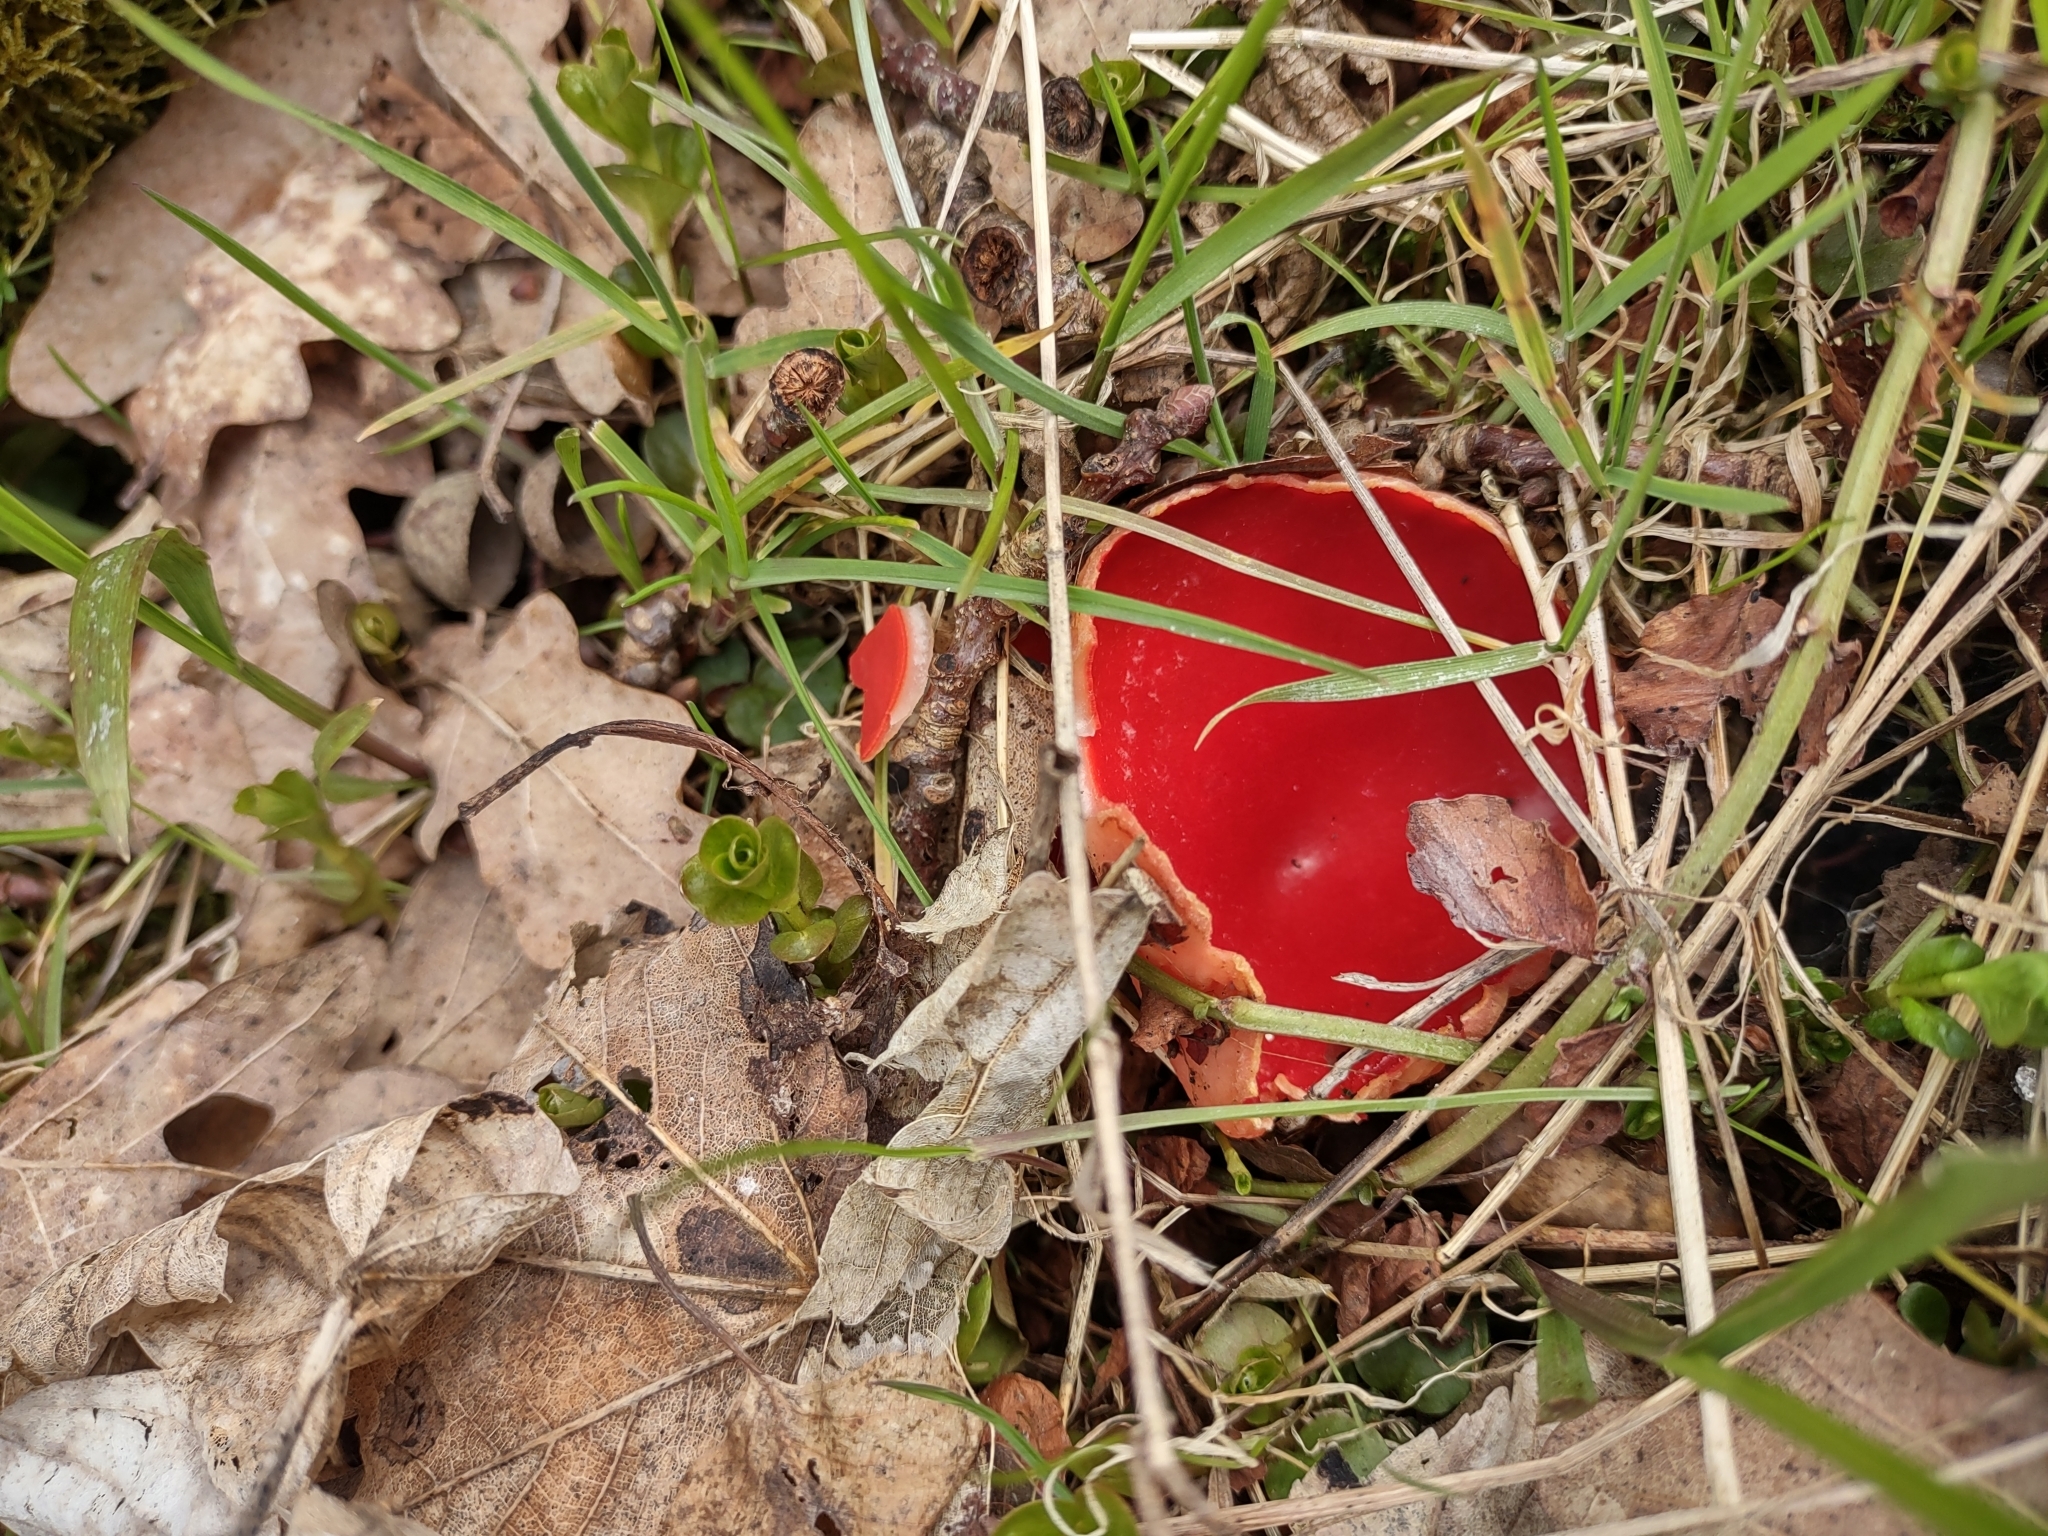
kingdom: Fungi
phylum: Ascomycota
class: Pezizomycetes
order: Pezizales
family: Sarcoscyphaceae
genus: Sarcoscypha
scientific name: Sarcoscypha
